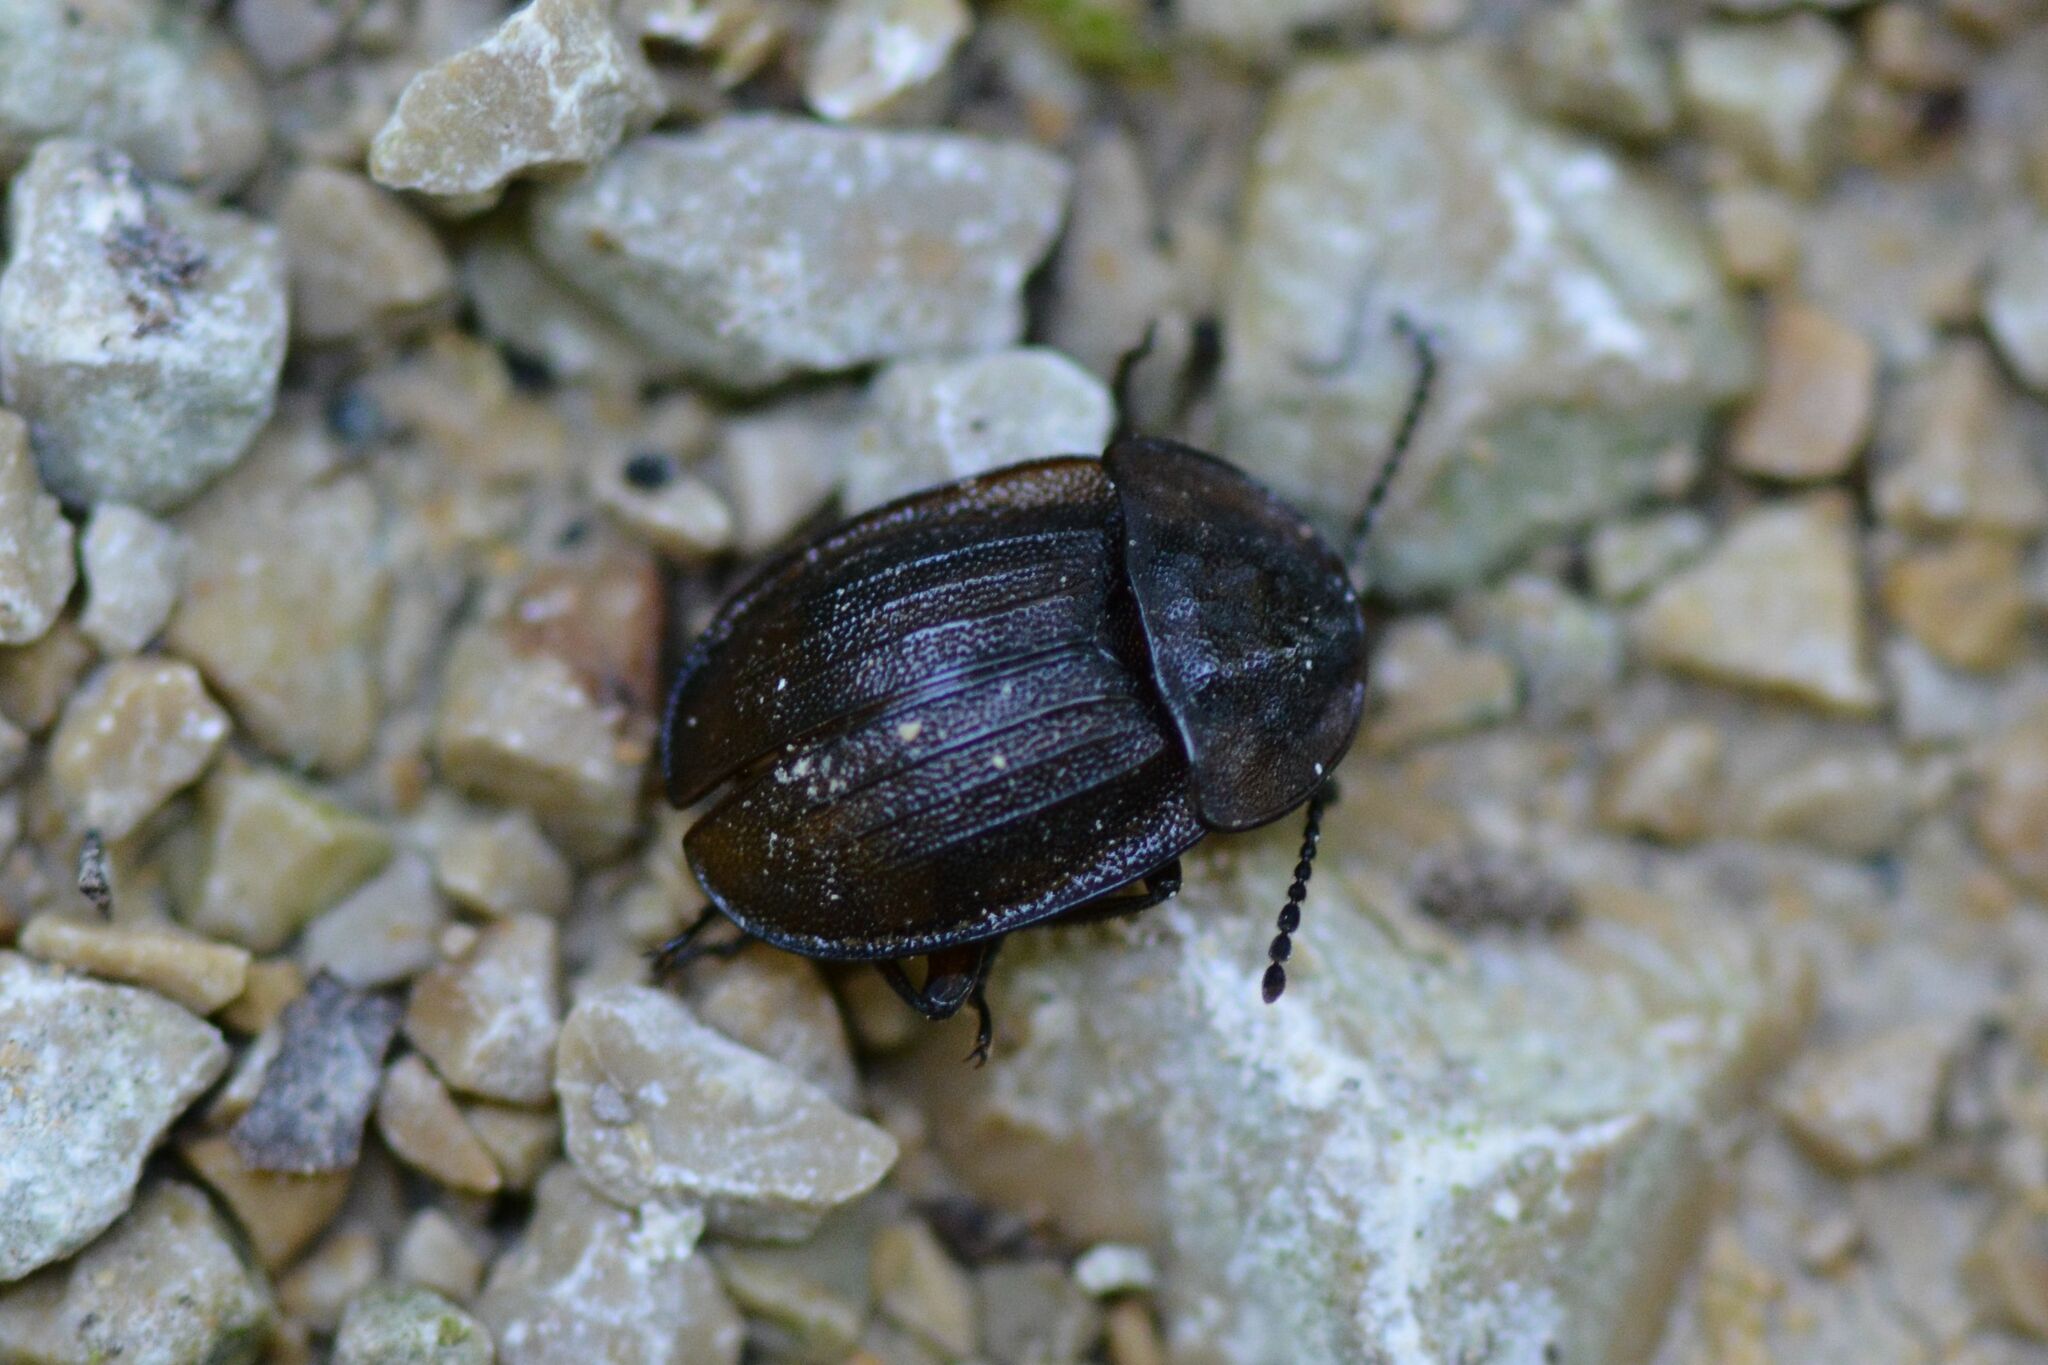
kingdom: Animalia
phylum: Arthropoda
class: Insecta
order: Coleoptera
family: Staphylinidae
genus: Silpha
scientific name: Silpha atrata
